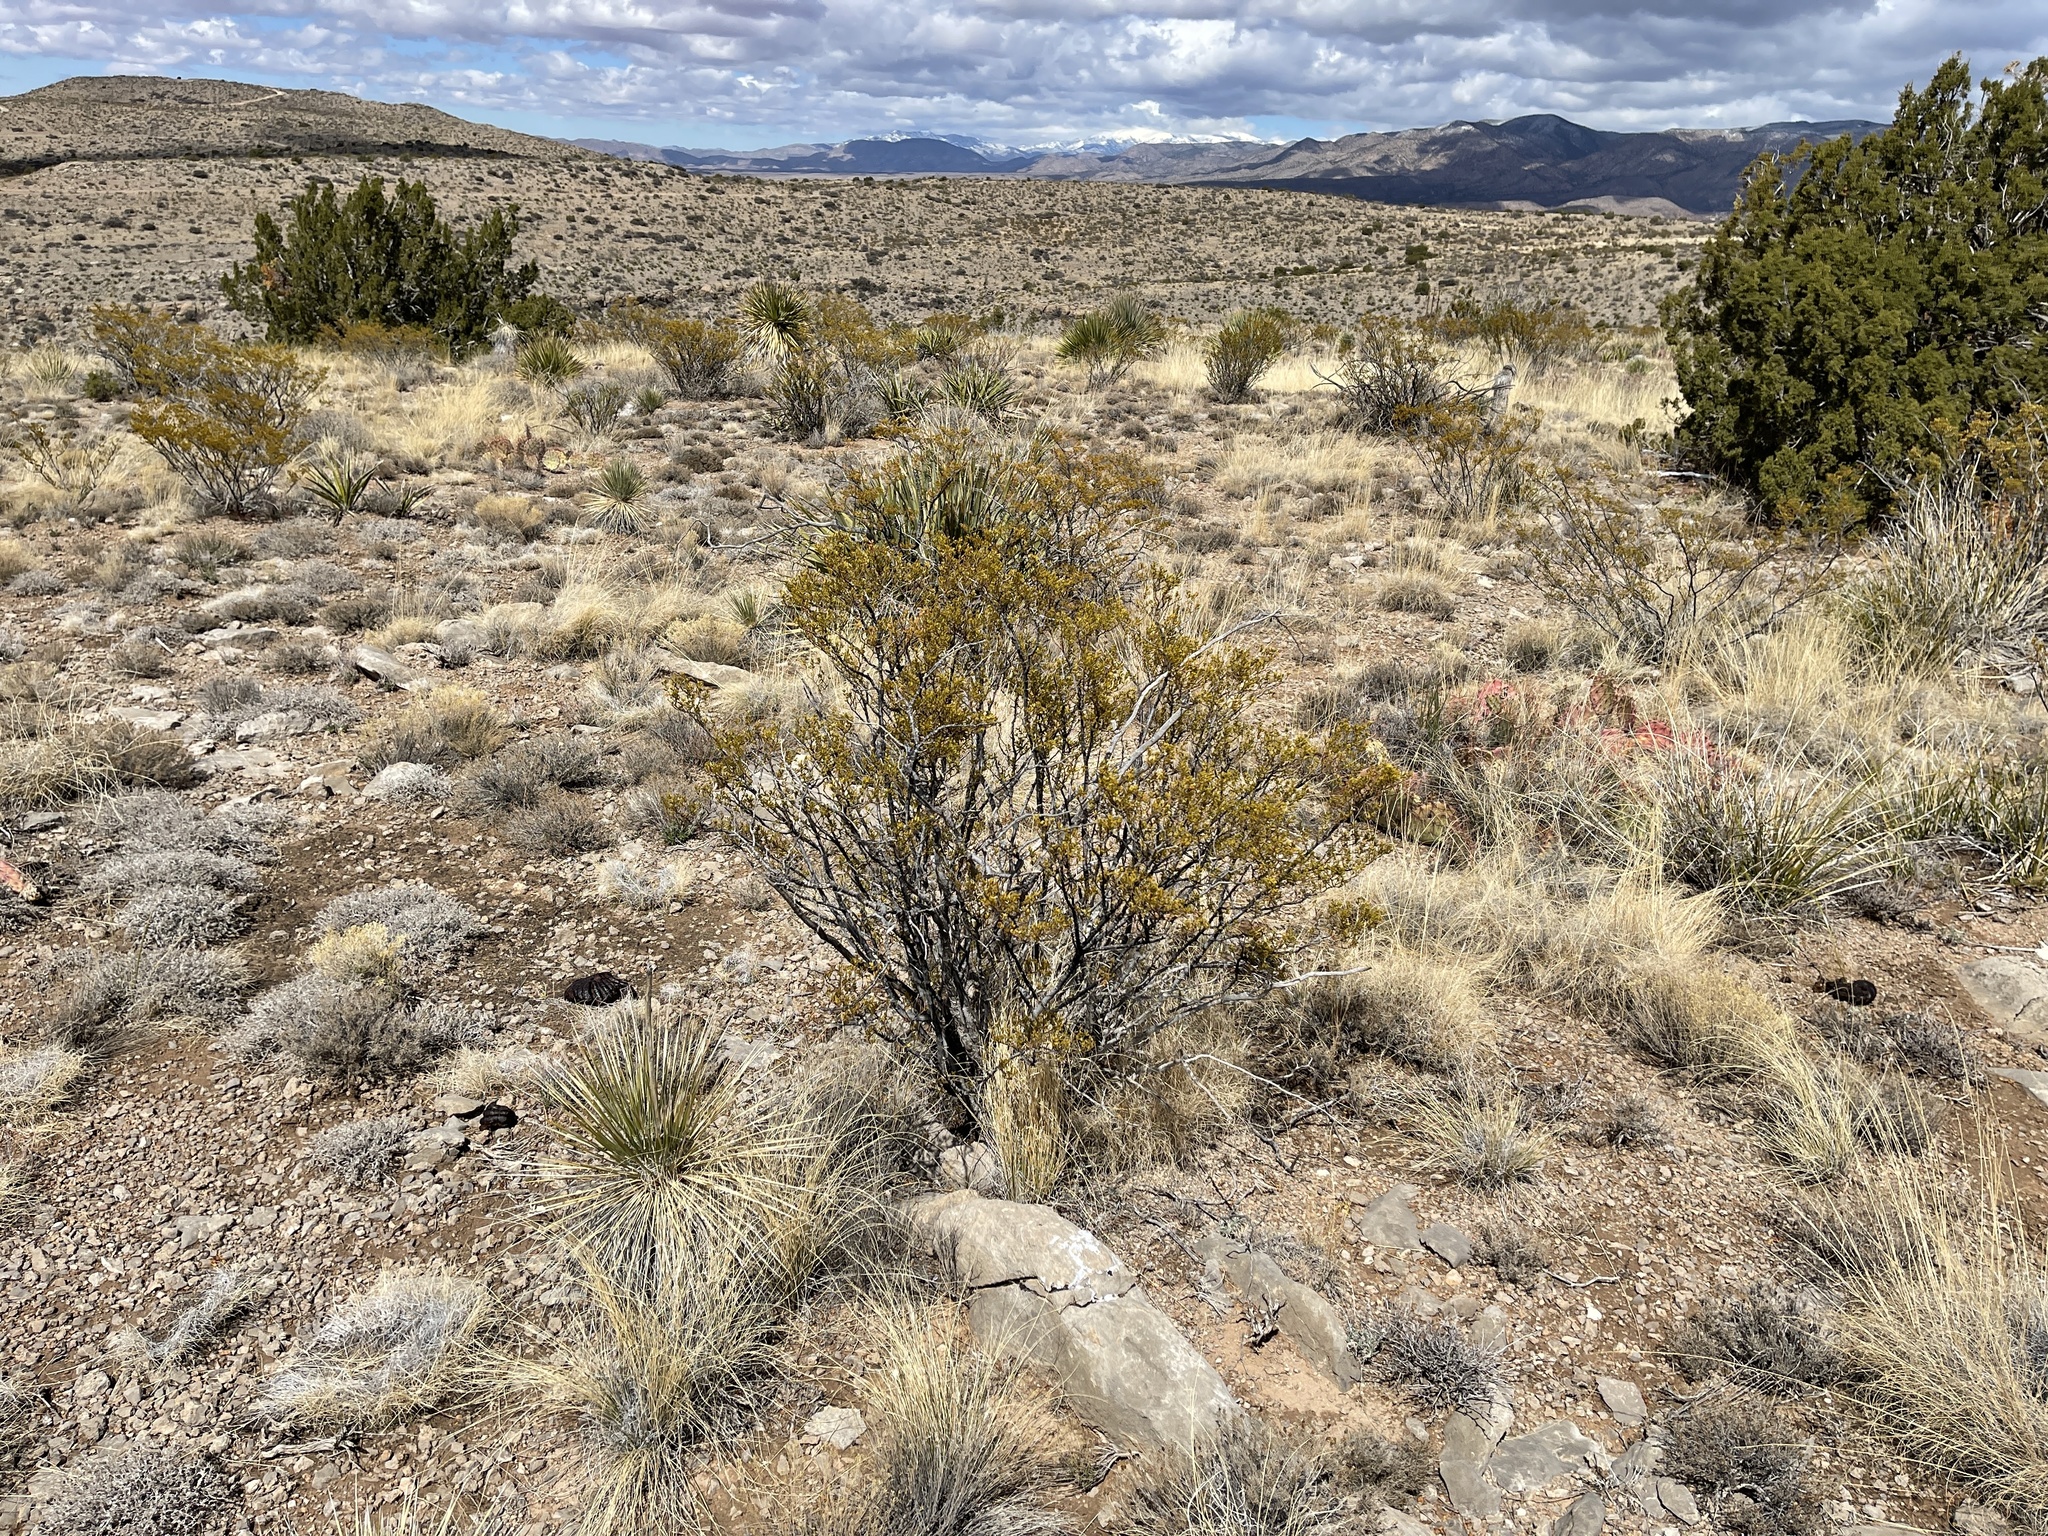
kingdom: Plantae
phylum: Tracheophyta
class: Magnoliopsida
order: Zygophyllales
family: Zygophyllaceae
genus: Larrea
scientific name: Larrea tridentata
